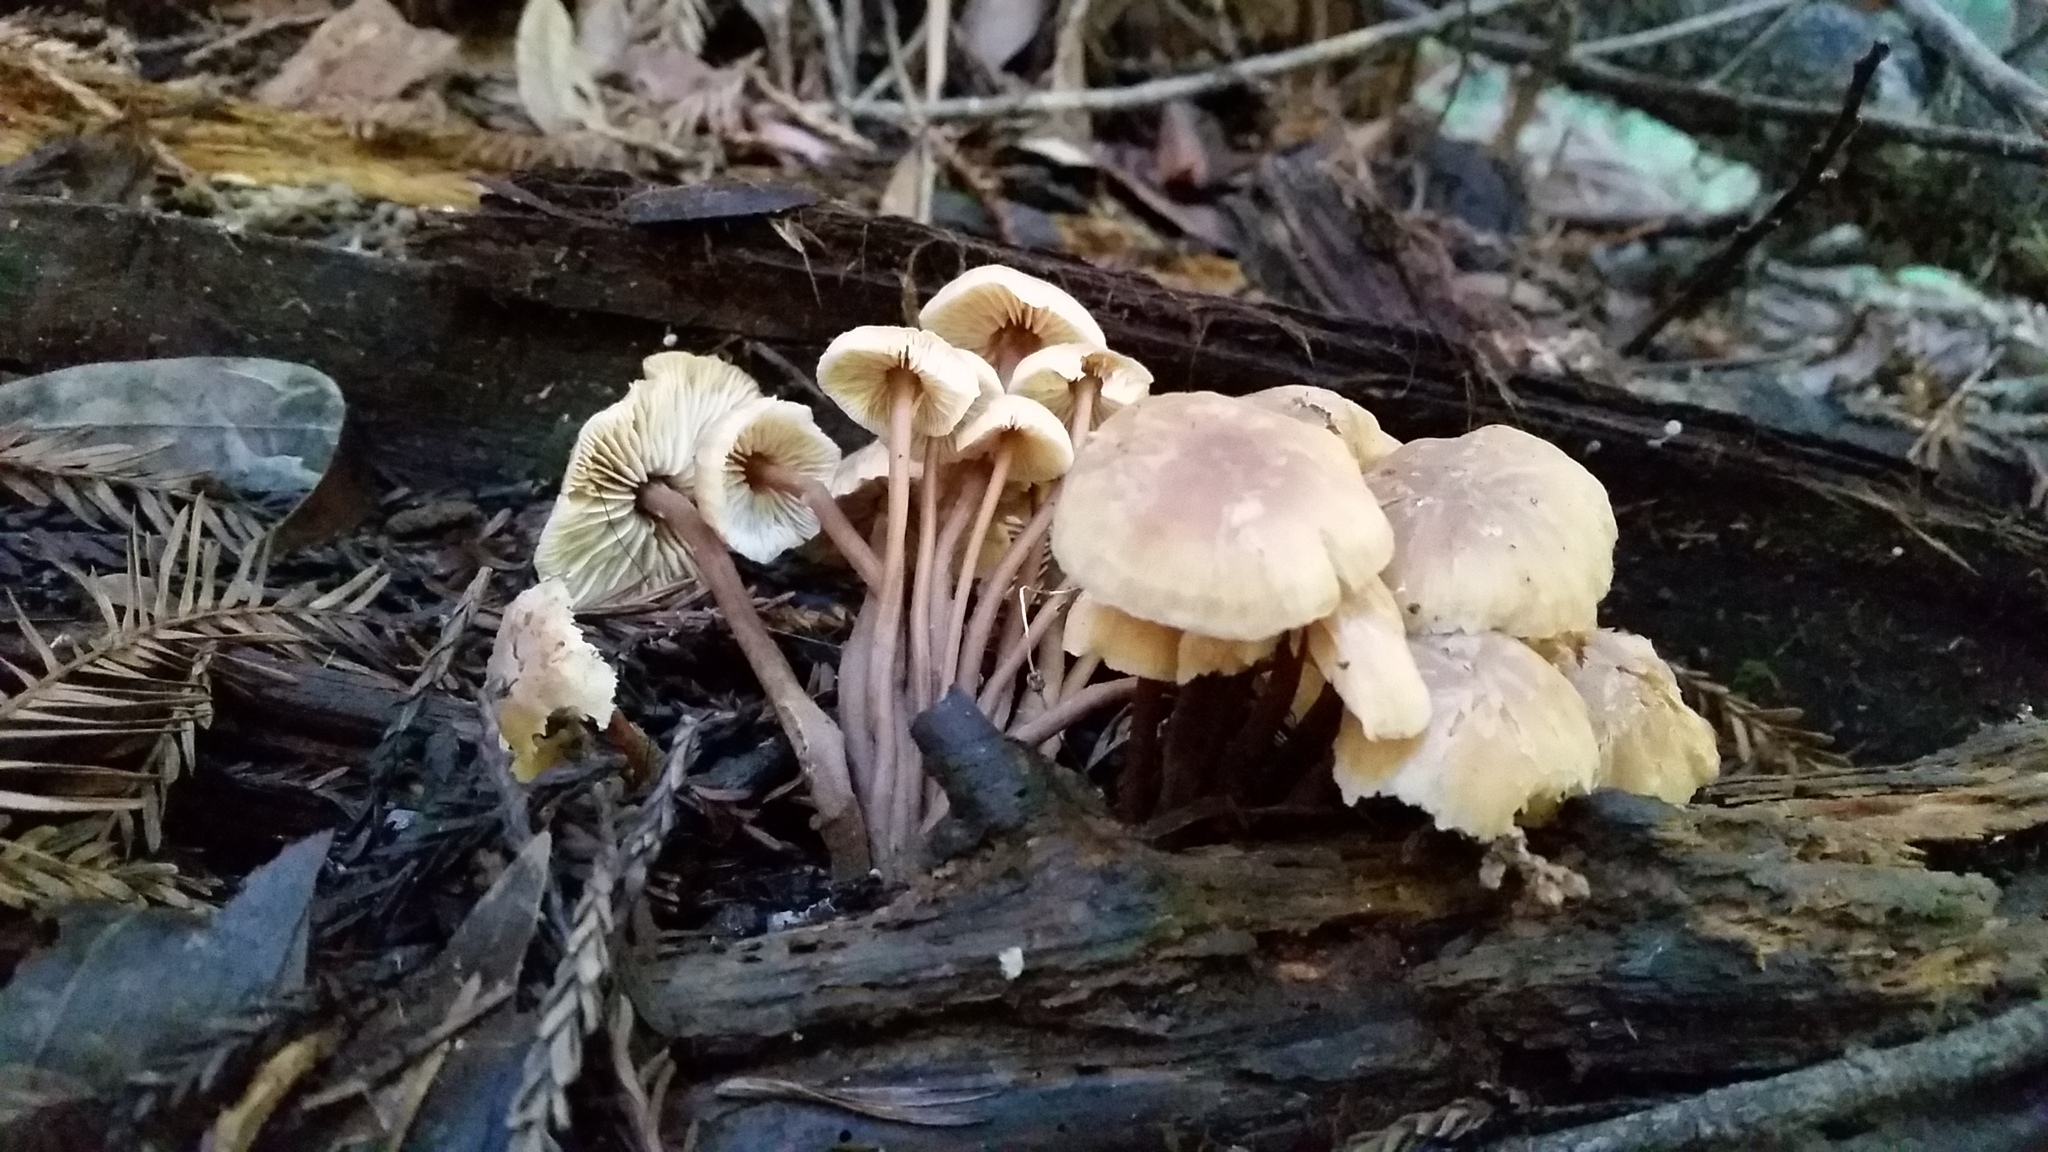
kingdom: Fungi
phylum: Basidiomycota
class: Agaricomycetes
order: Agaricales
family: Omphalotaceae
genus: Connopus
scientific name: Connopus acervatus
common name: Cluster cap
